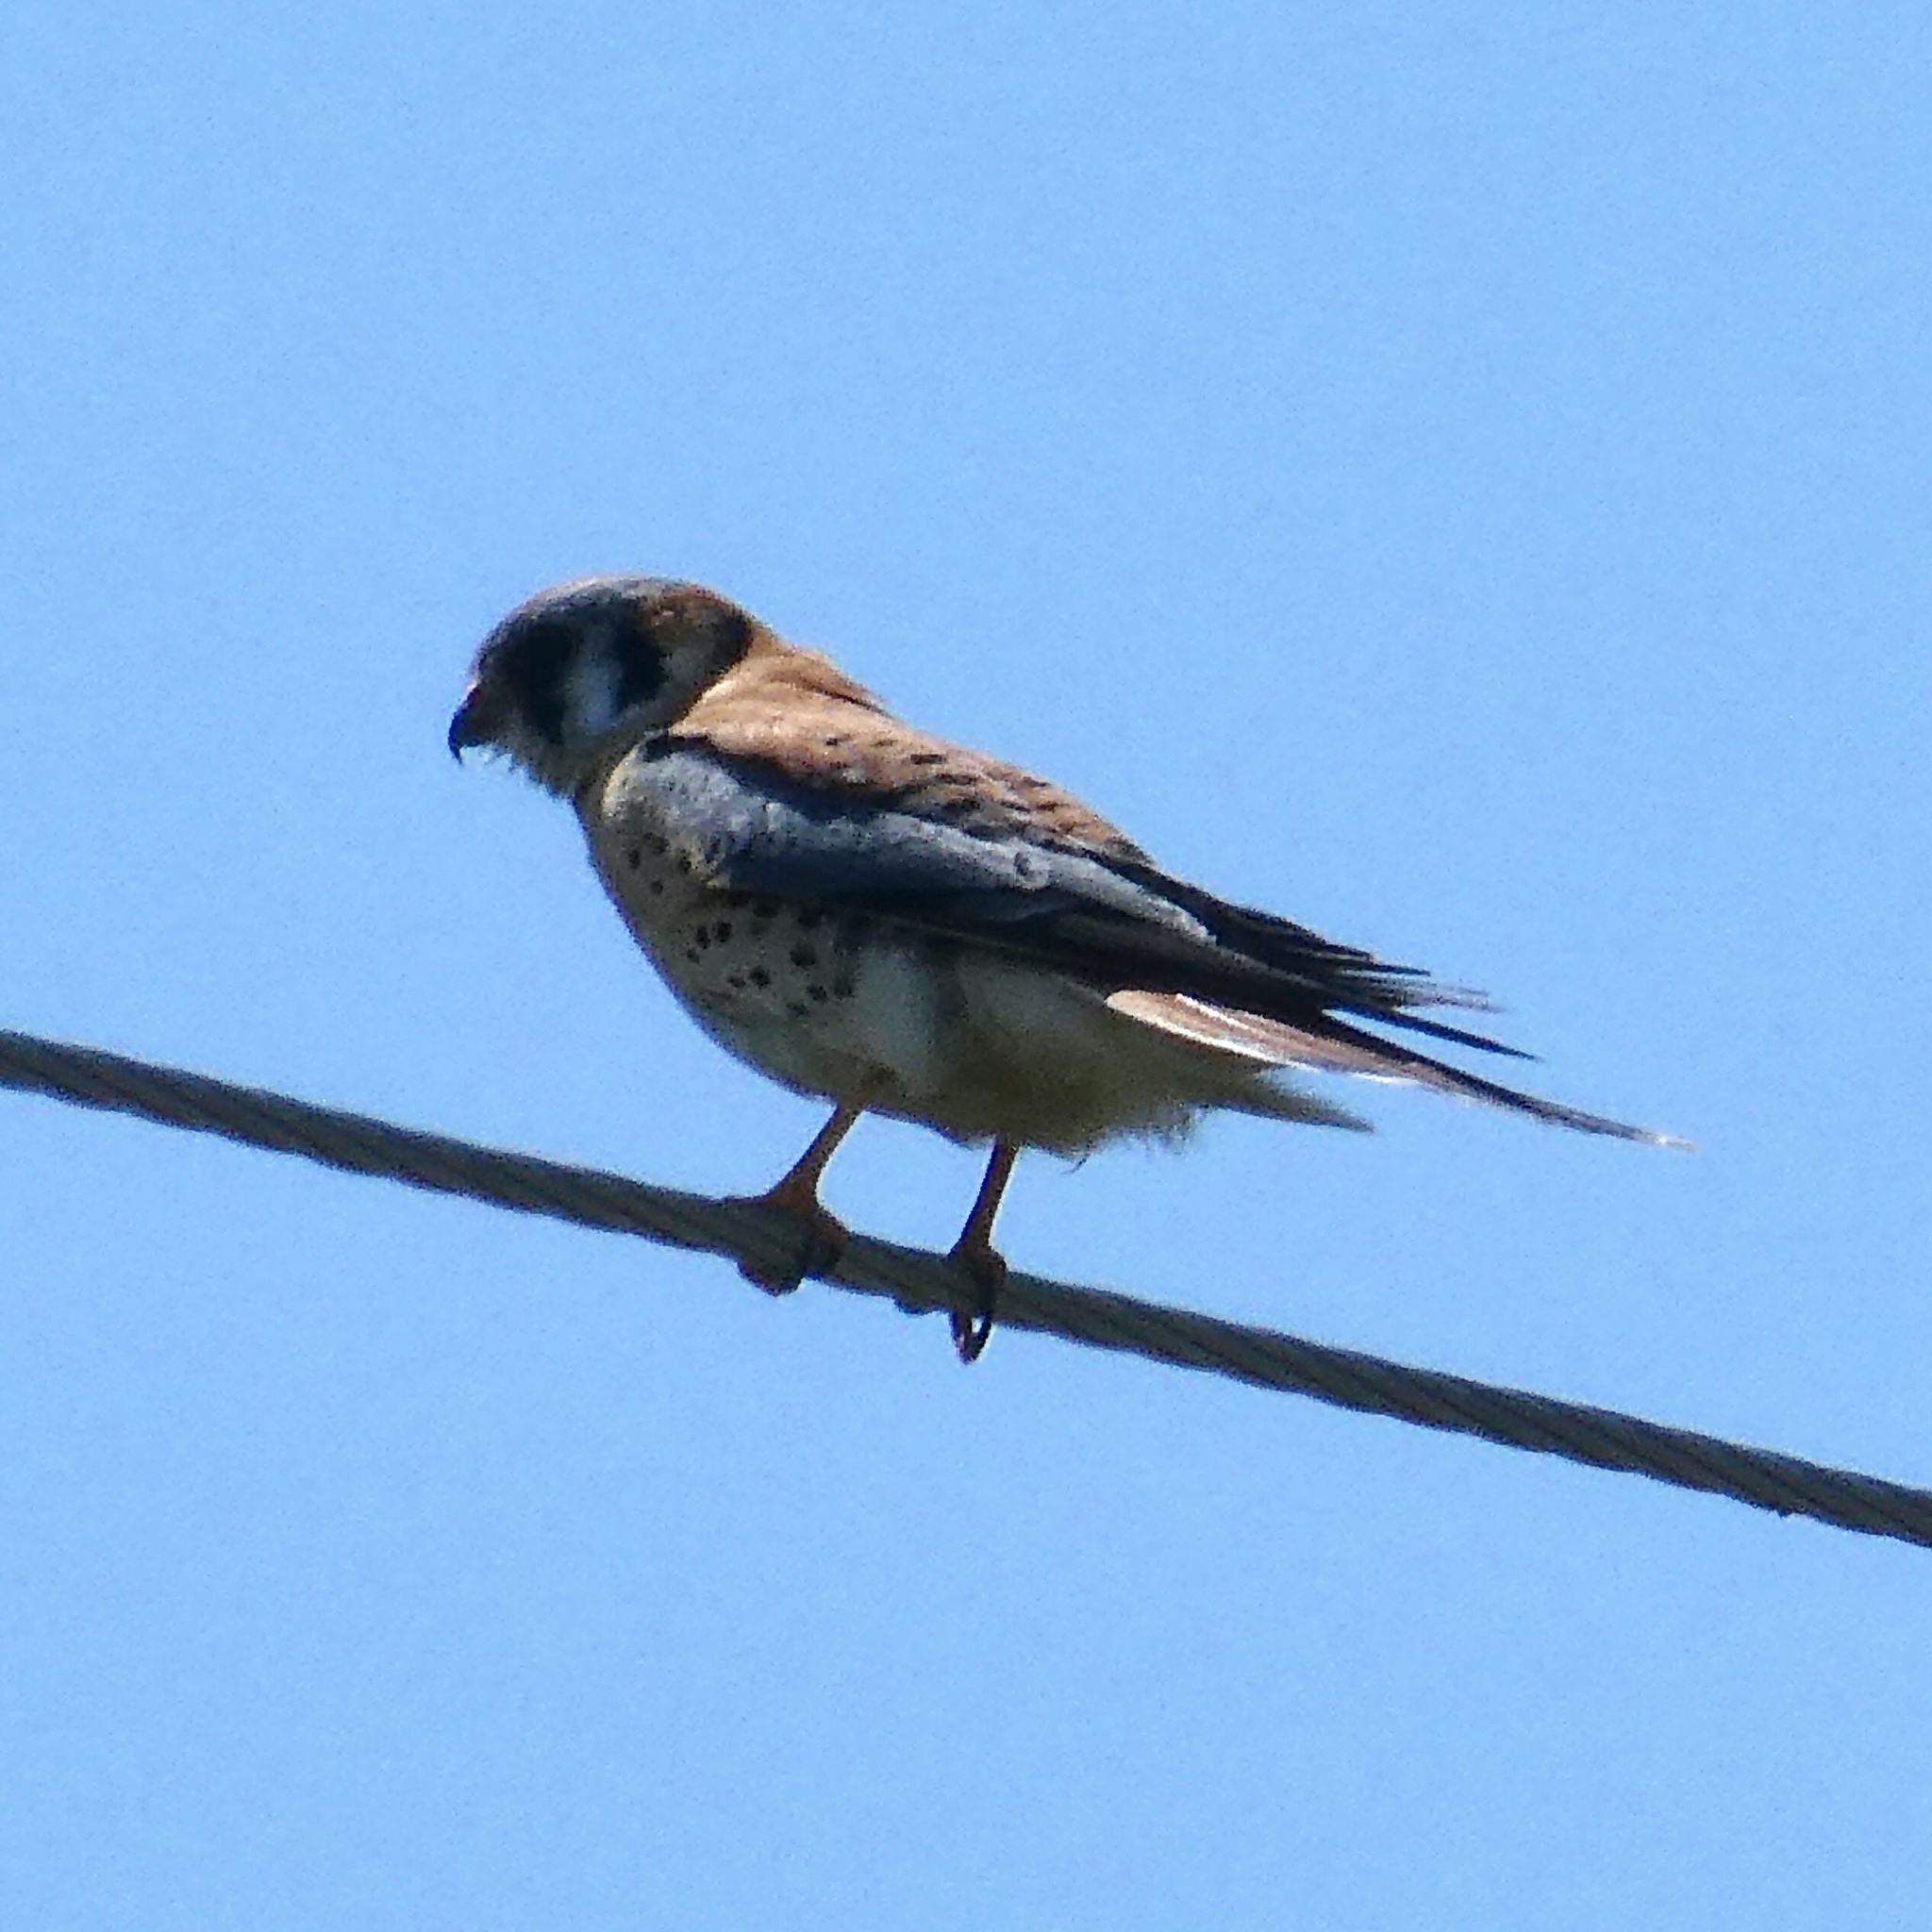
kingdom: Animalia
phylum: Chordata
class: Aves
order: Falconiformes
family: Falconidae
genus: Falco
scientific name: Falco sparverius
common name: American kestrel
